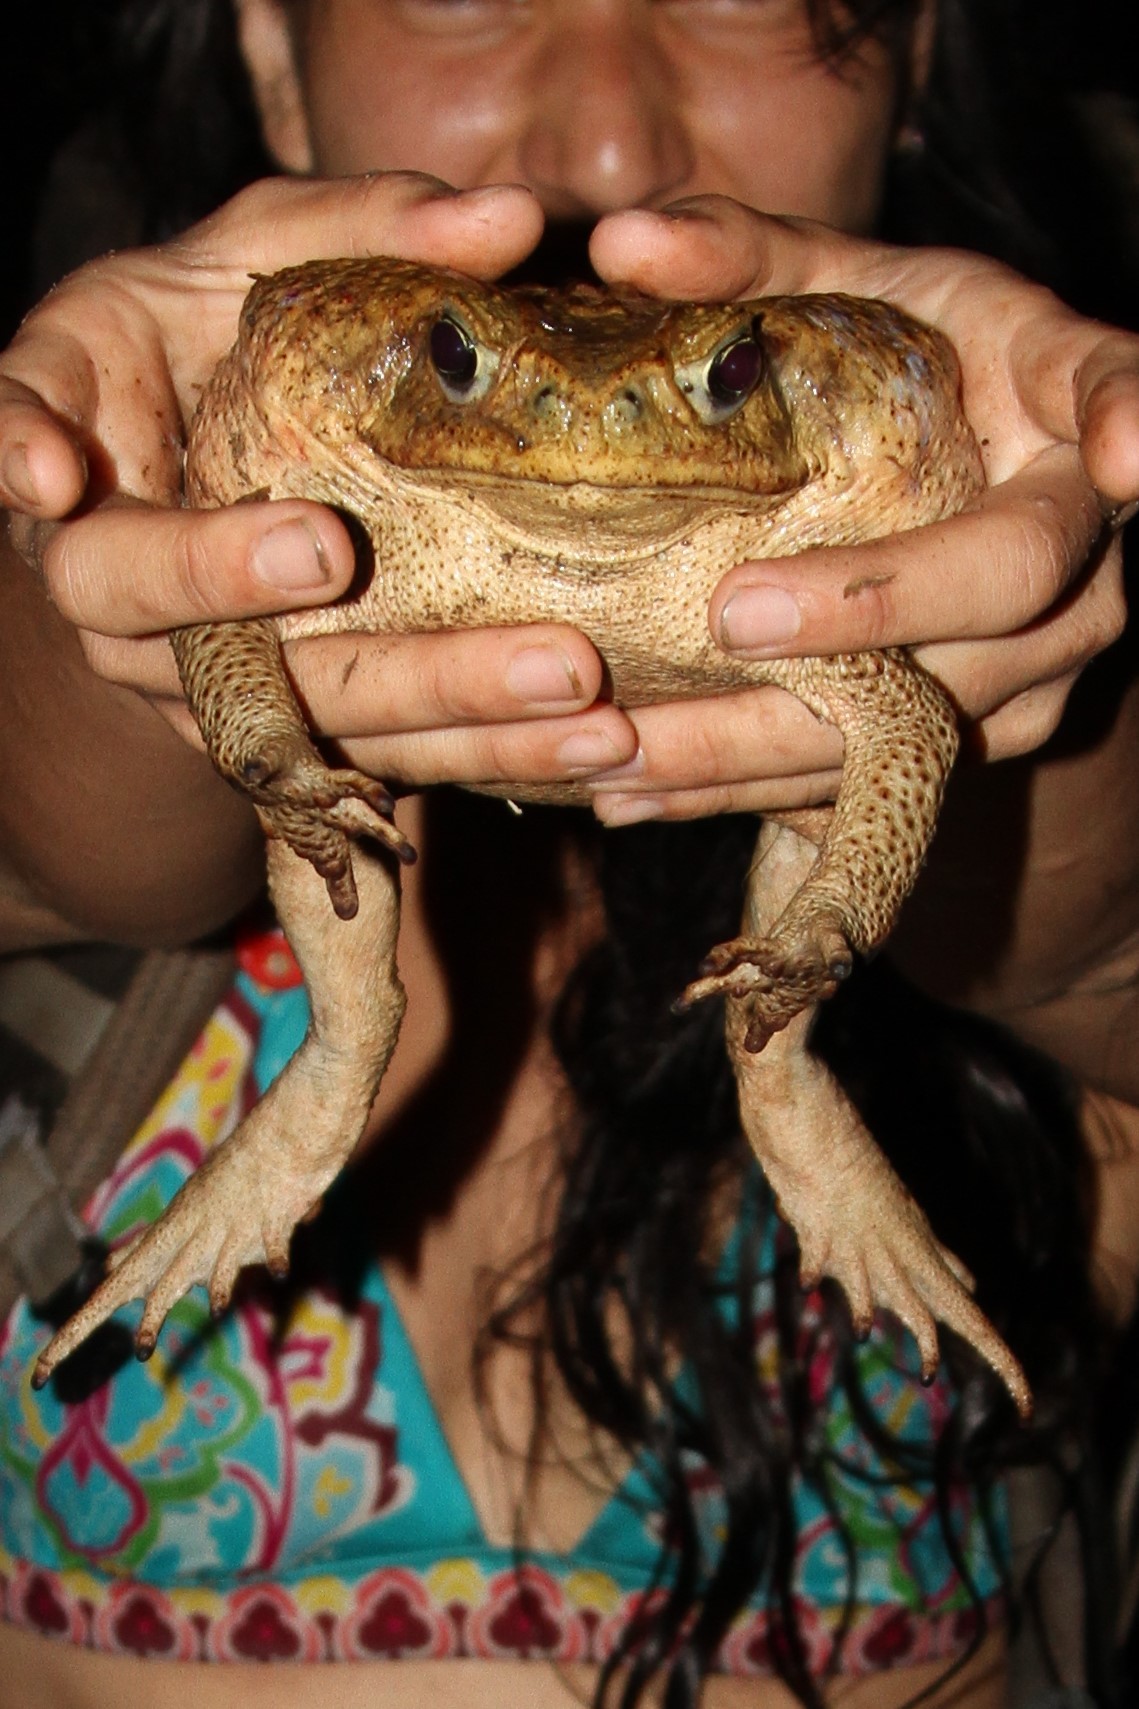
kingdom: Animalia
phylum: Chordata
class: Amphibia
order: Anura
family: Bufonidae
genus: Rhinella
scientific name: Rhinella horribilis
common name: Mesoamerican cane toad
